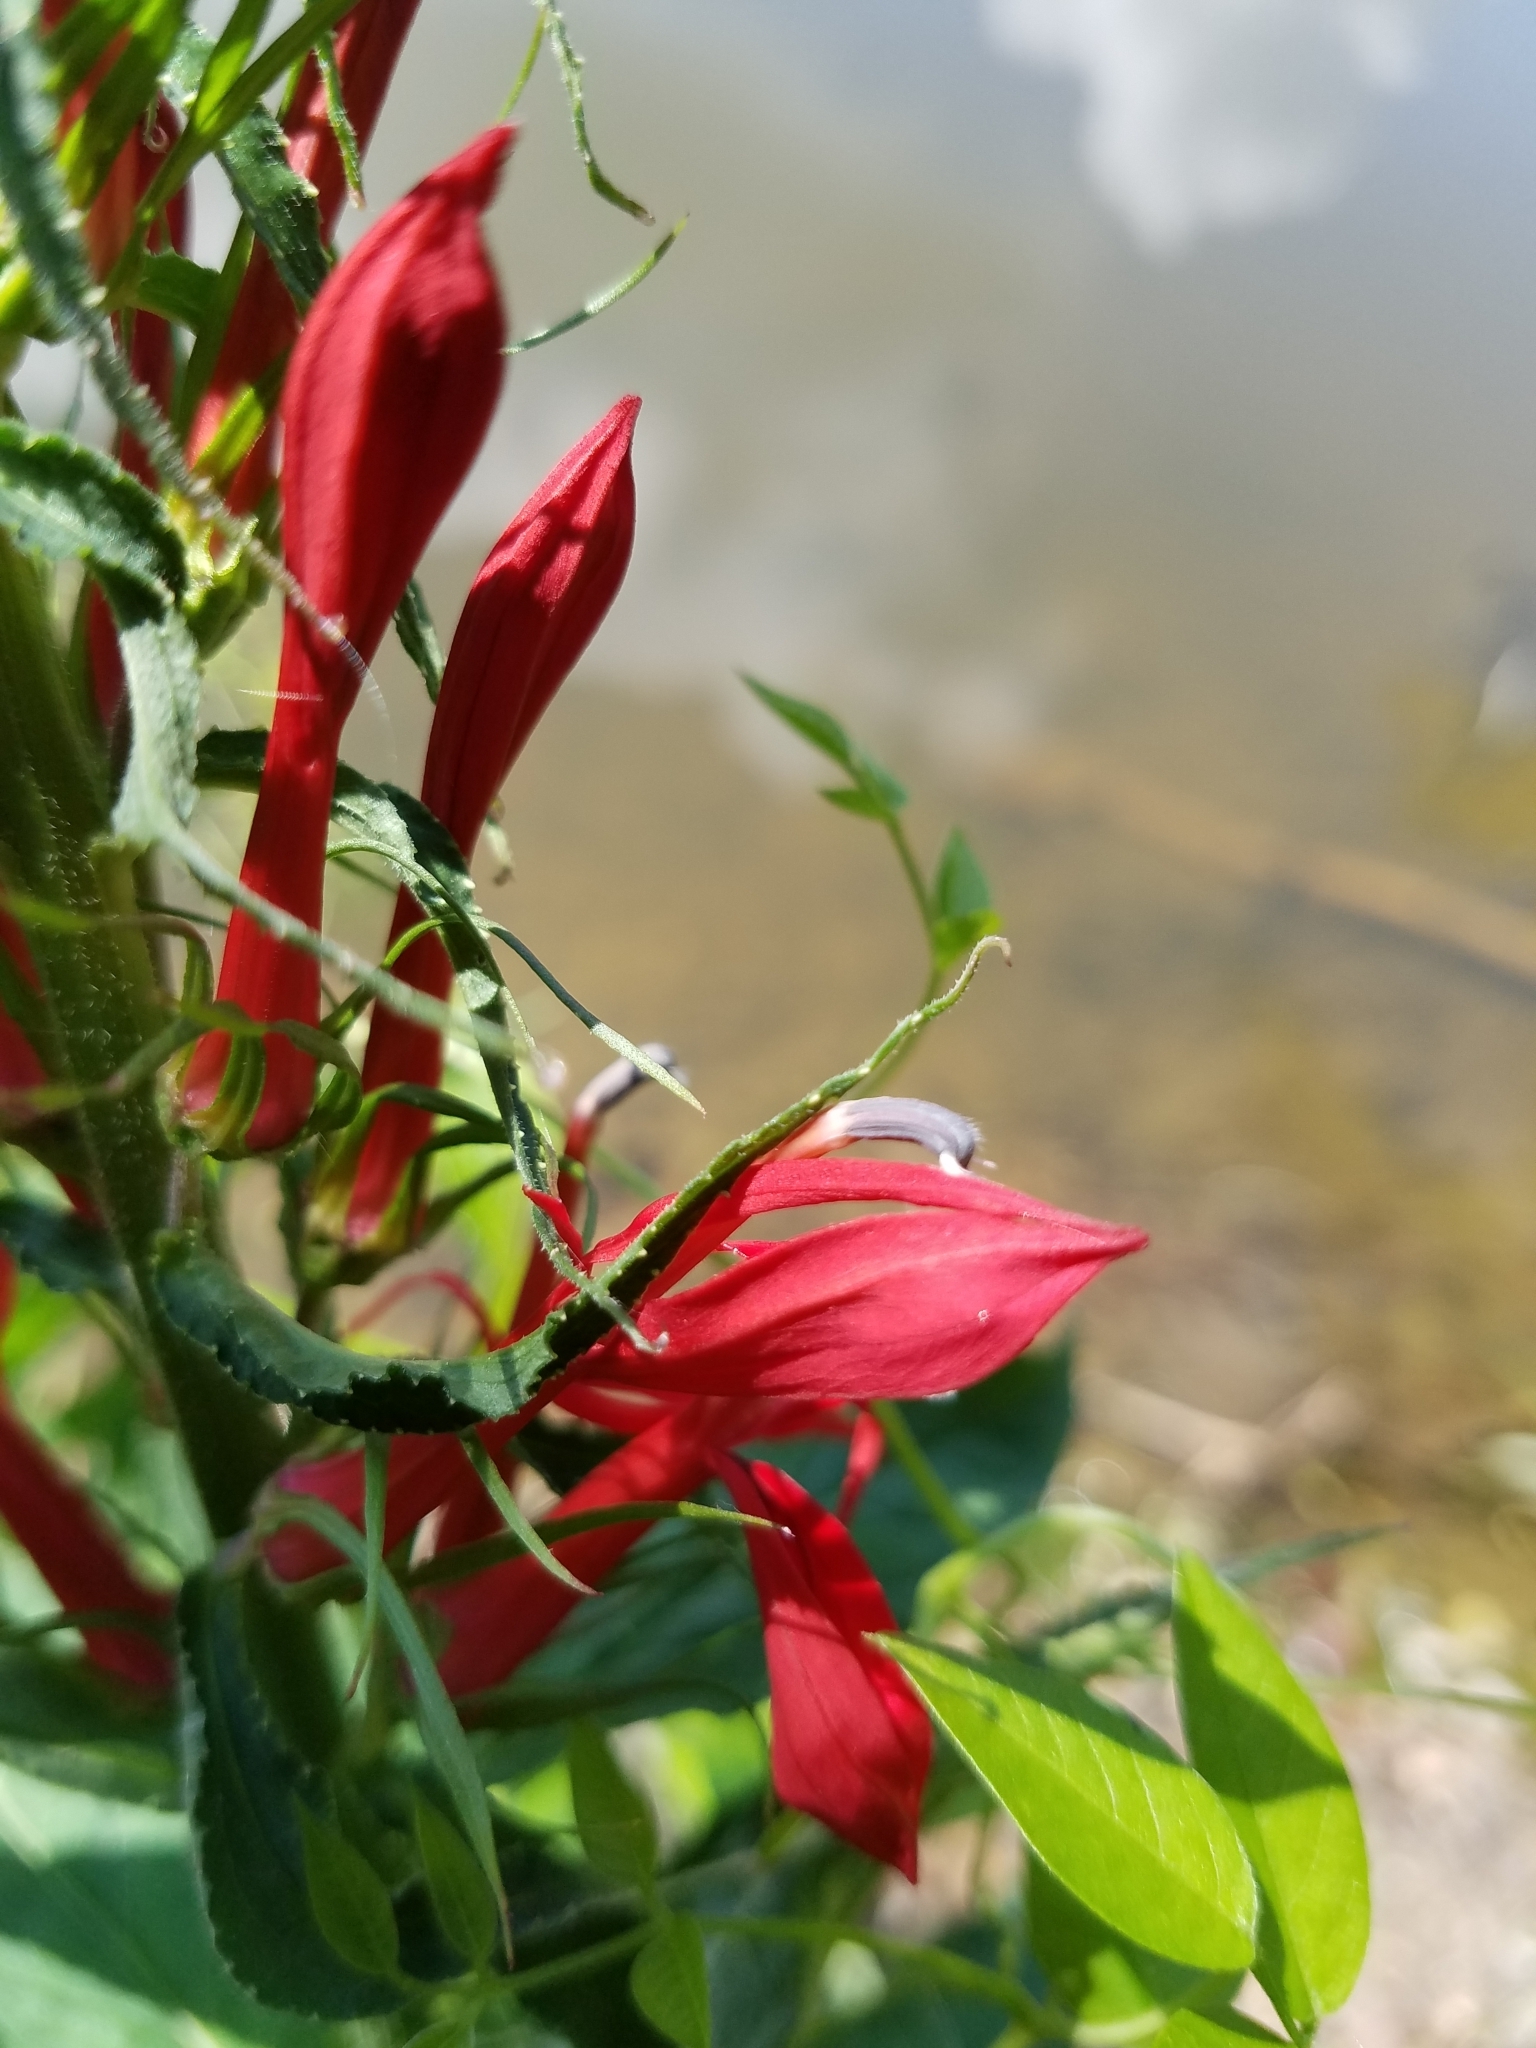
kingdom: Plantae
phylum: Tracheophyta
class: Magnoliopsida
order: Asterales
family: Campanulaceae
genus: Lobelia
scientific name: Lobelia cardinalis
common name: Cardinal flower
